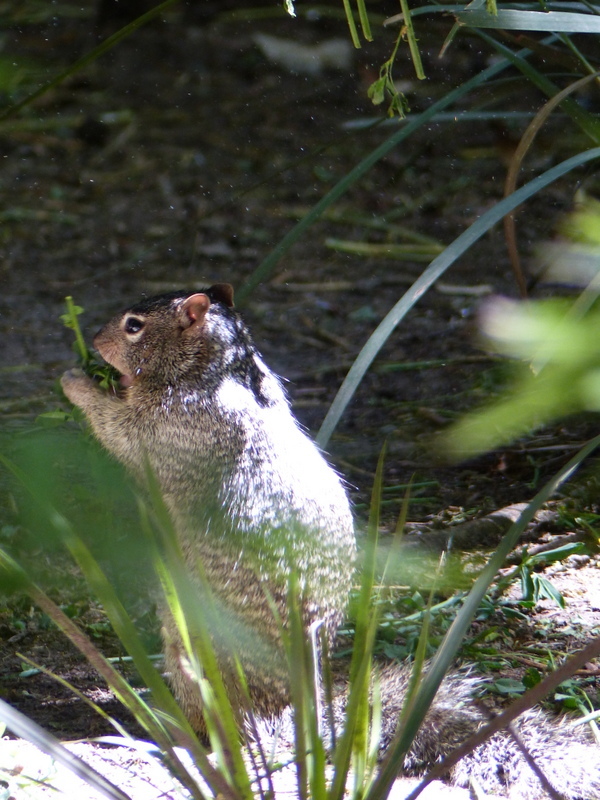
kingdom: Animalia
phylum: Chordata
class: Mammalia
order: Rodentia
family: Sciuridae
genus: Otospermophilus
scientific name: Otospermophilus variegatus
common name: Rock squirrel
